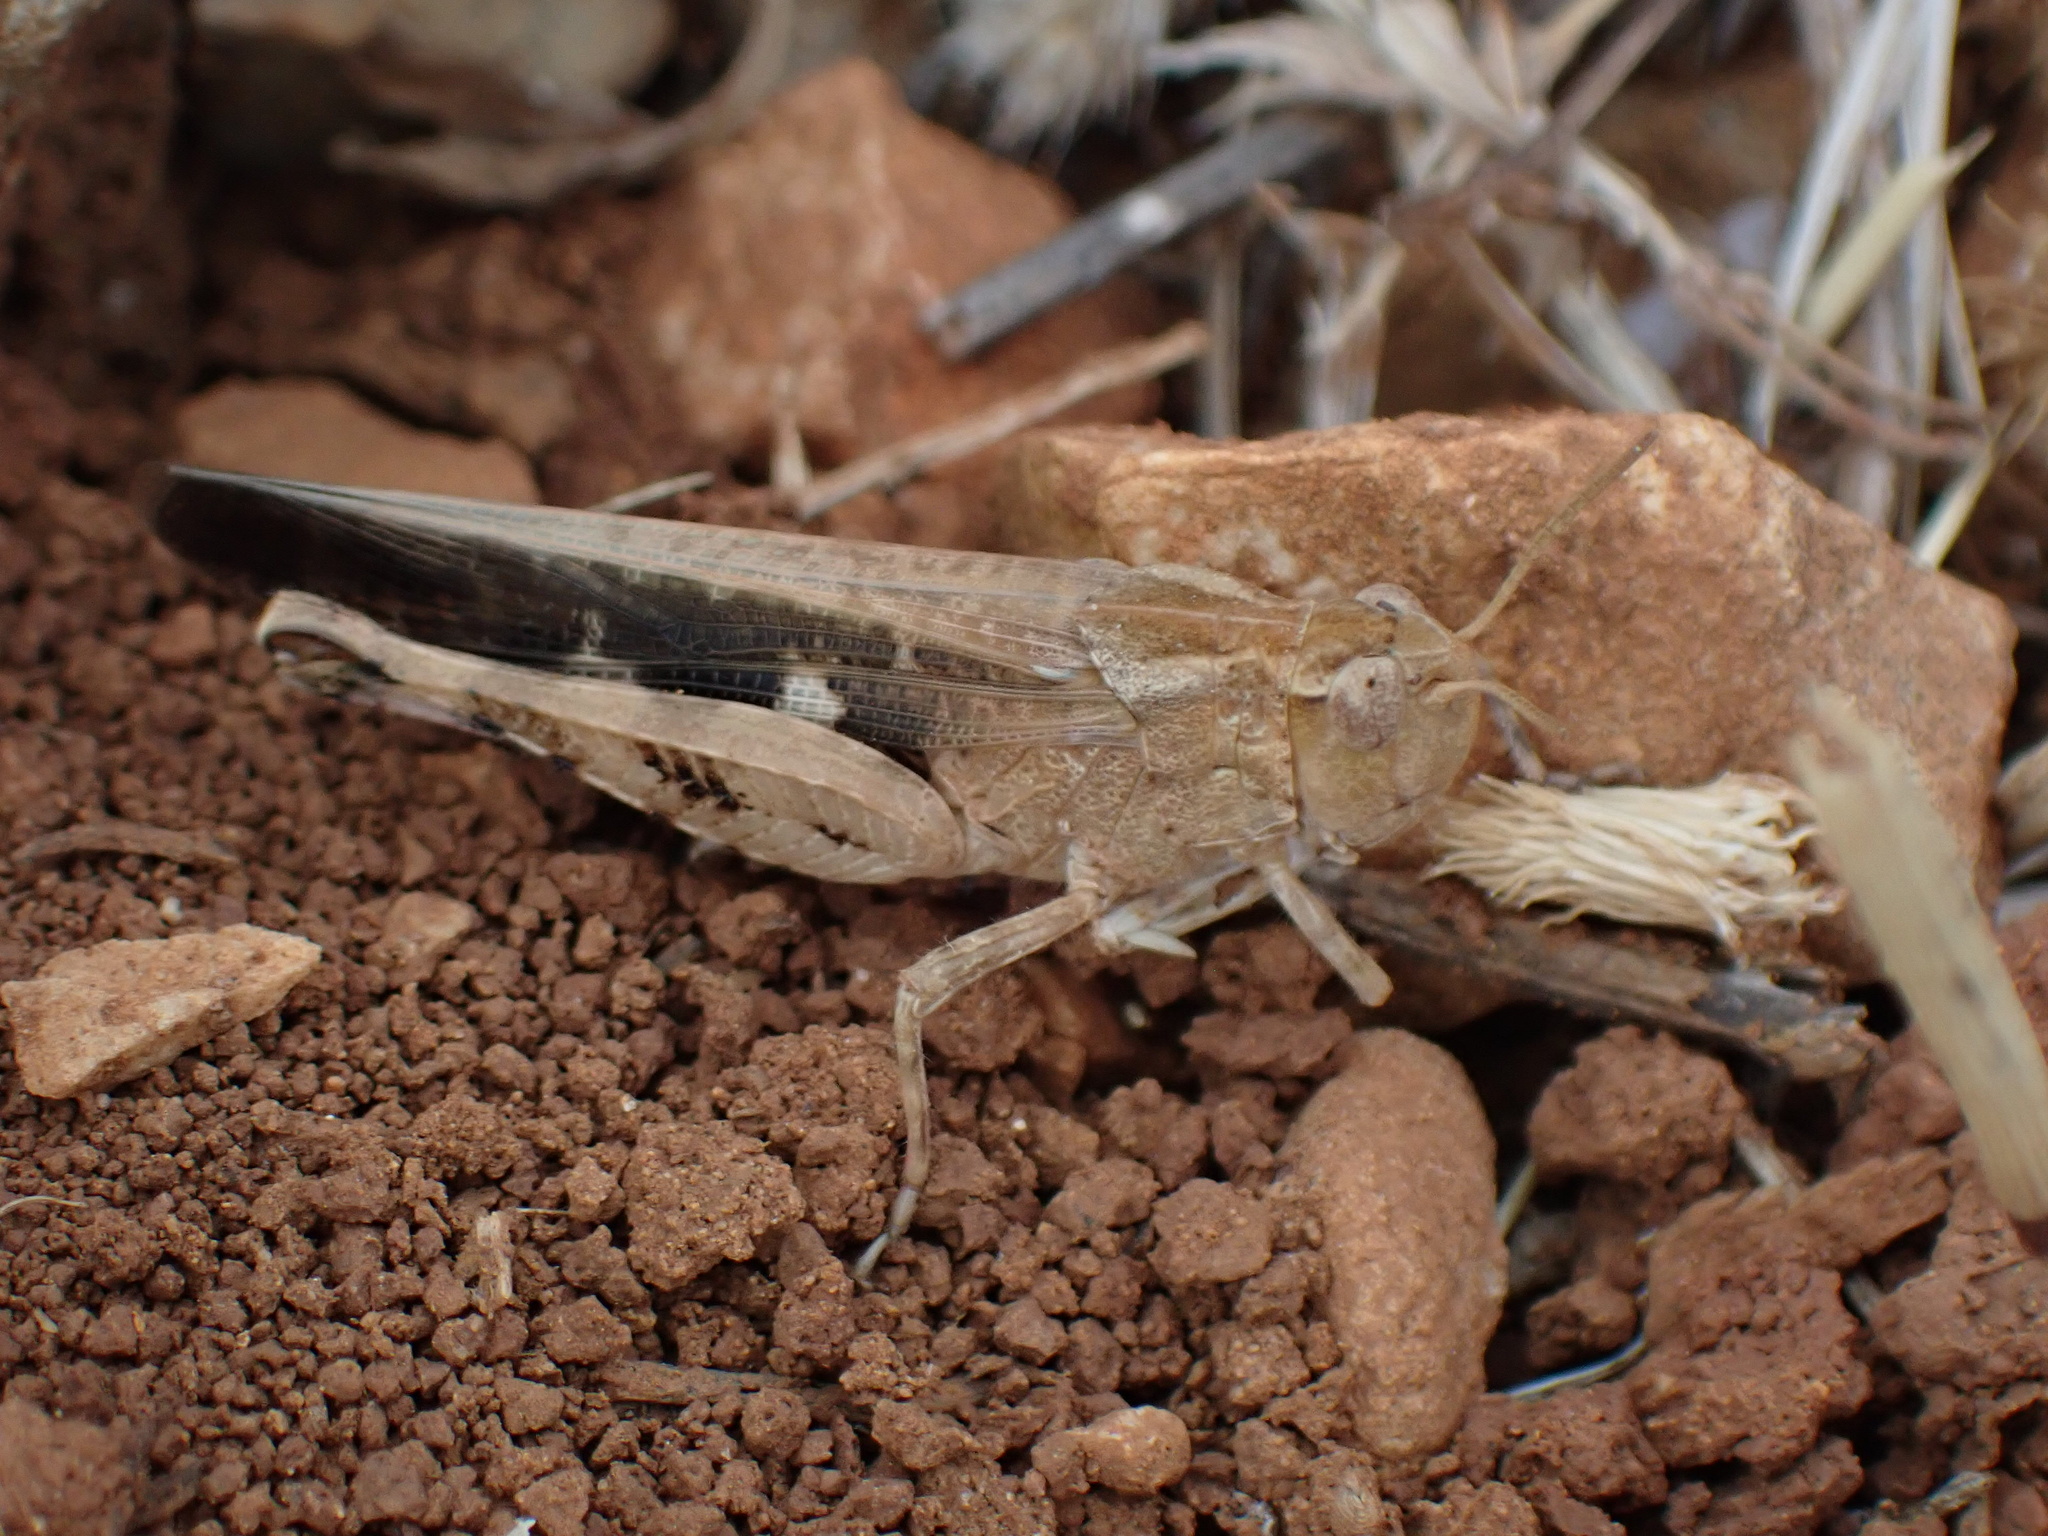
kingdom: Animalia
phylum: Arthropoda
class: Insecta
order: Orthoptera
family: Acrididae
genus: Aiolopus
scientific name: Aiolopus strepens
